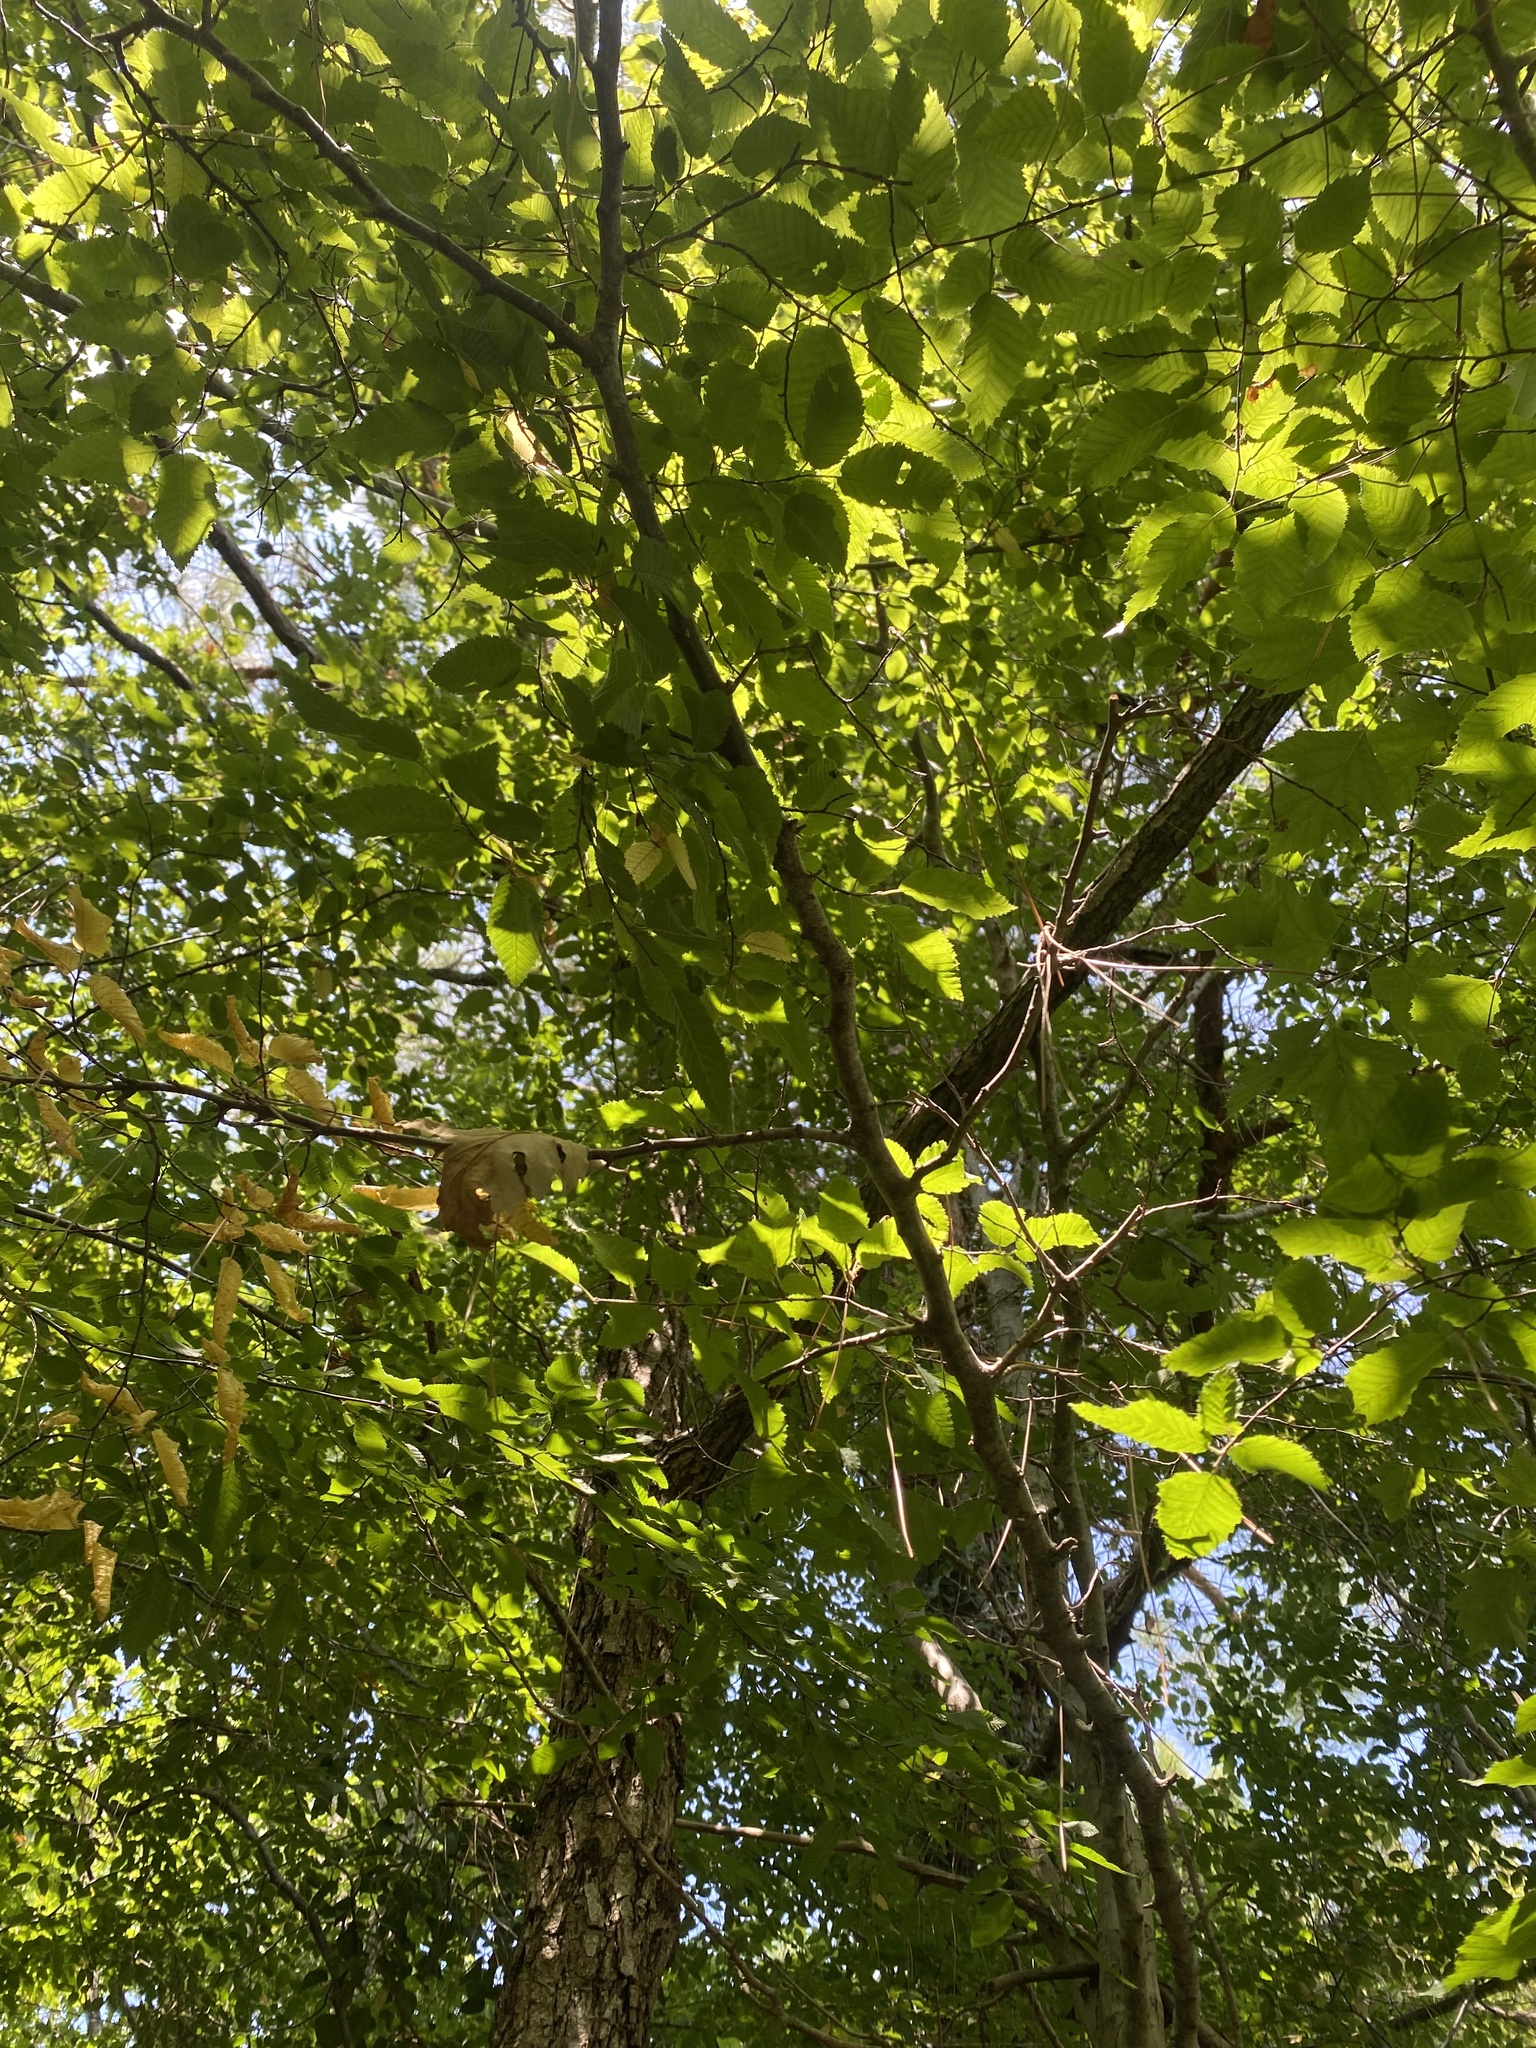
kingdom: Plantae
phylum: Tracheophyta
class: Magnoliopsida
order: Fagales
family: Betulaceae
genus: Carpinus
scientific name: Carpinus orientalis
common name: Eastern hornbeam
